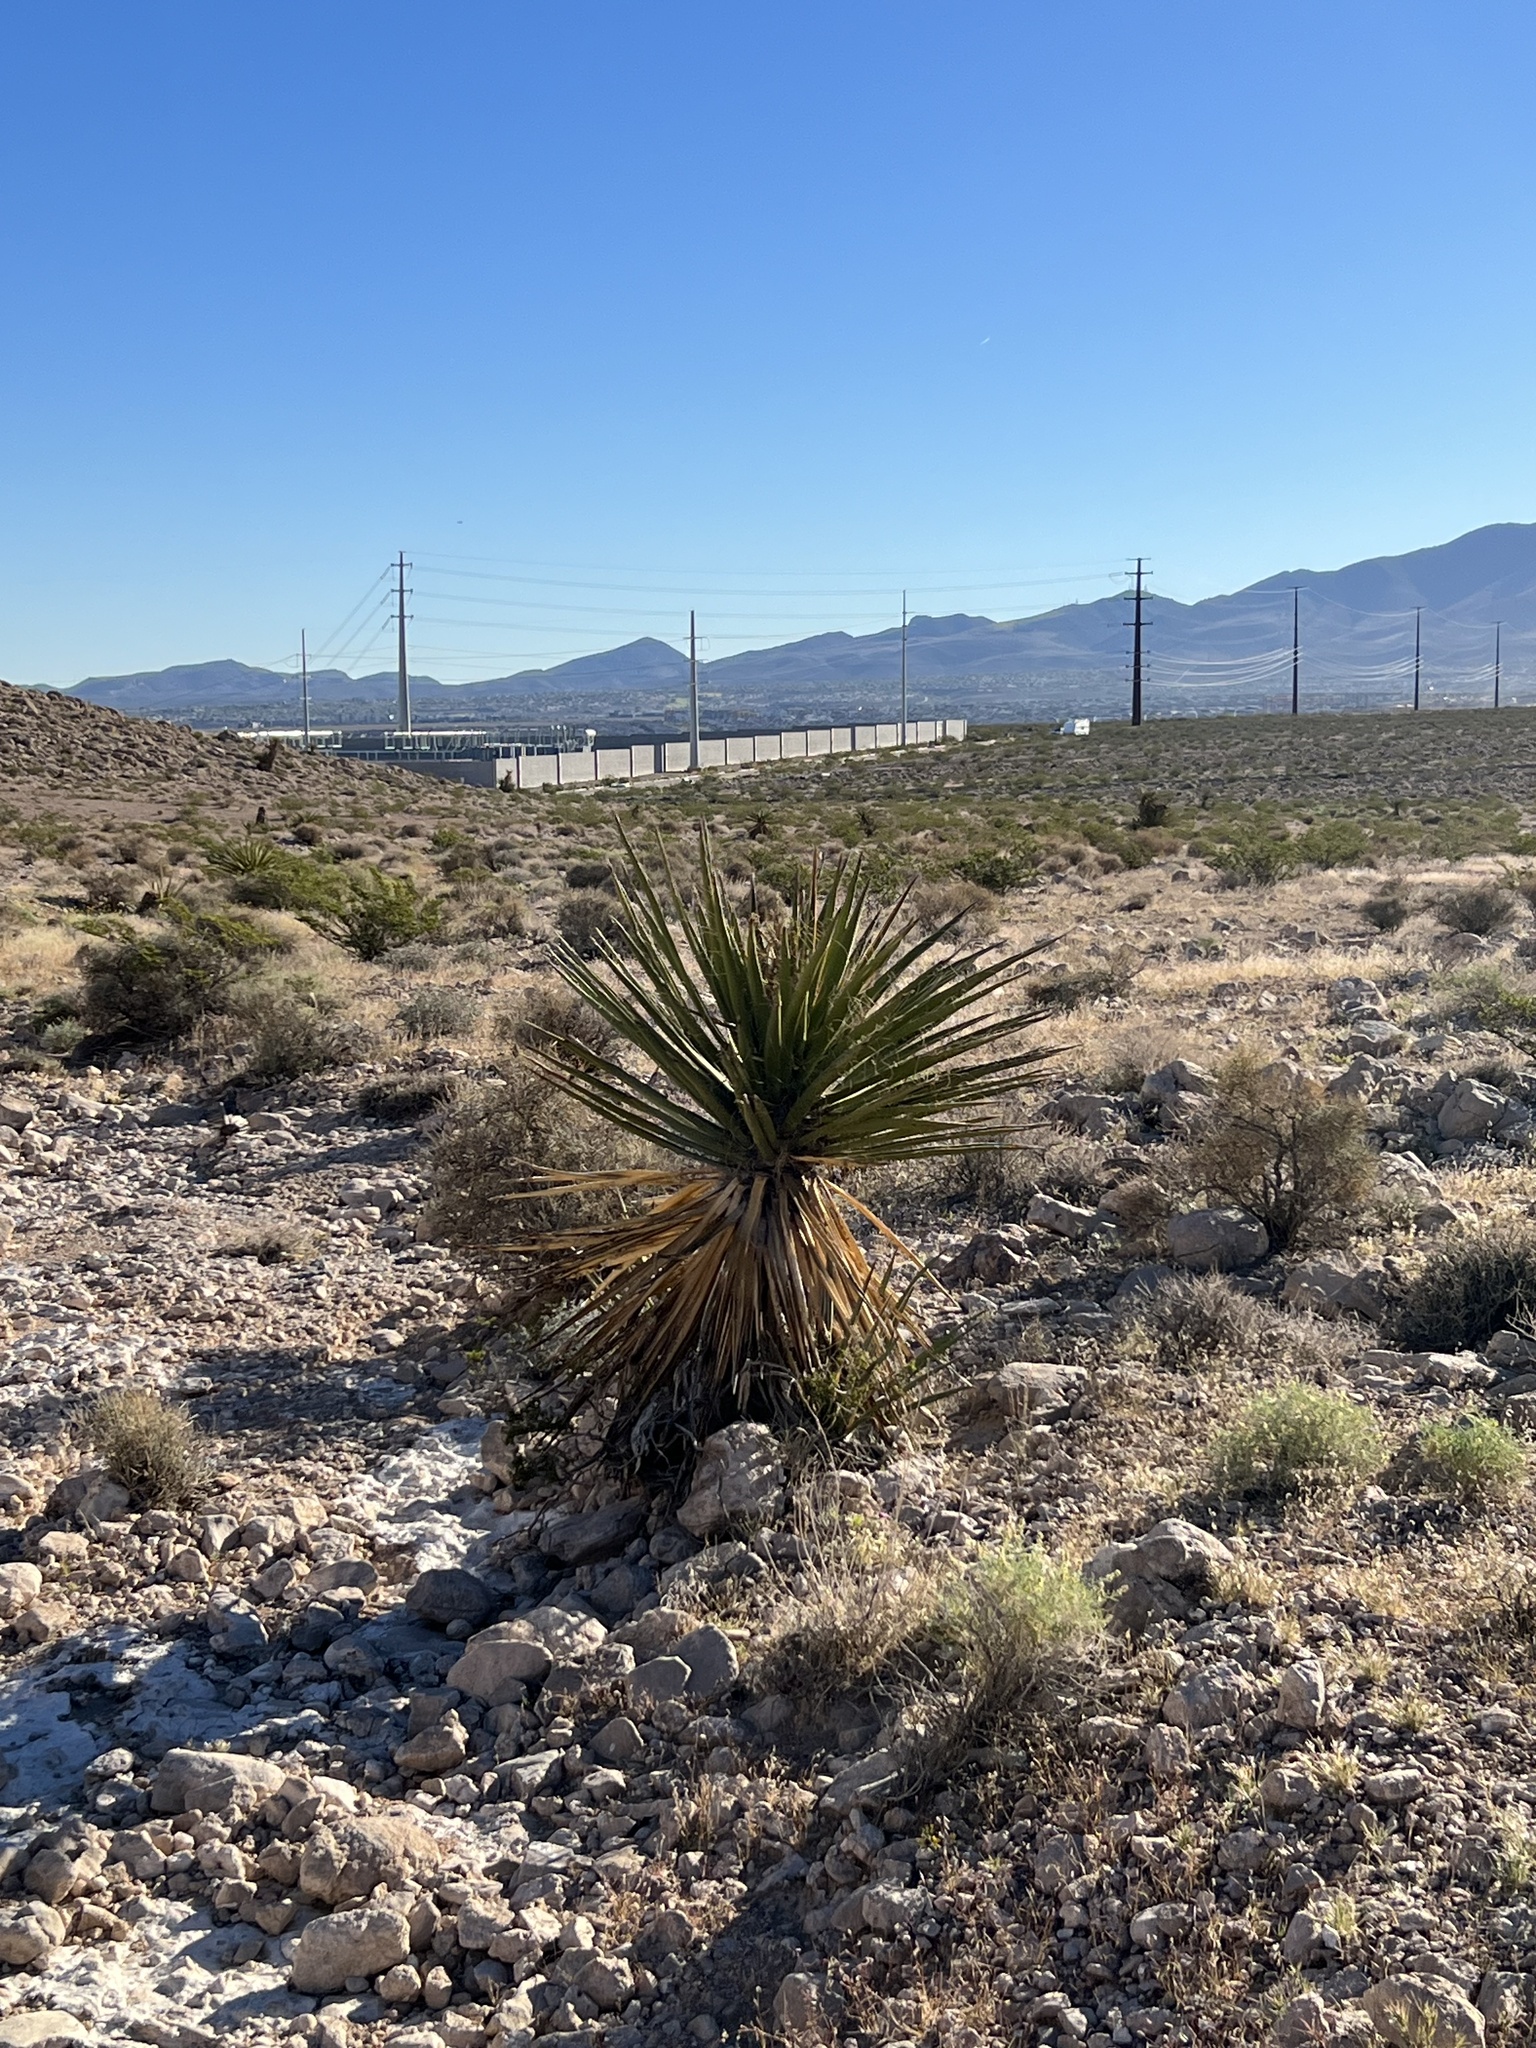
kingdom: Plantae
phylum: Tracheophyta
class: Liliopsida
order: Asparagales
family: Asparagaceae
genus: Yucca
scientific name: Yucca schidigera
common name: Mojave yucca
